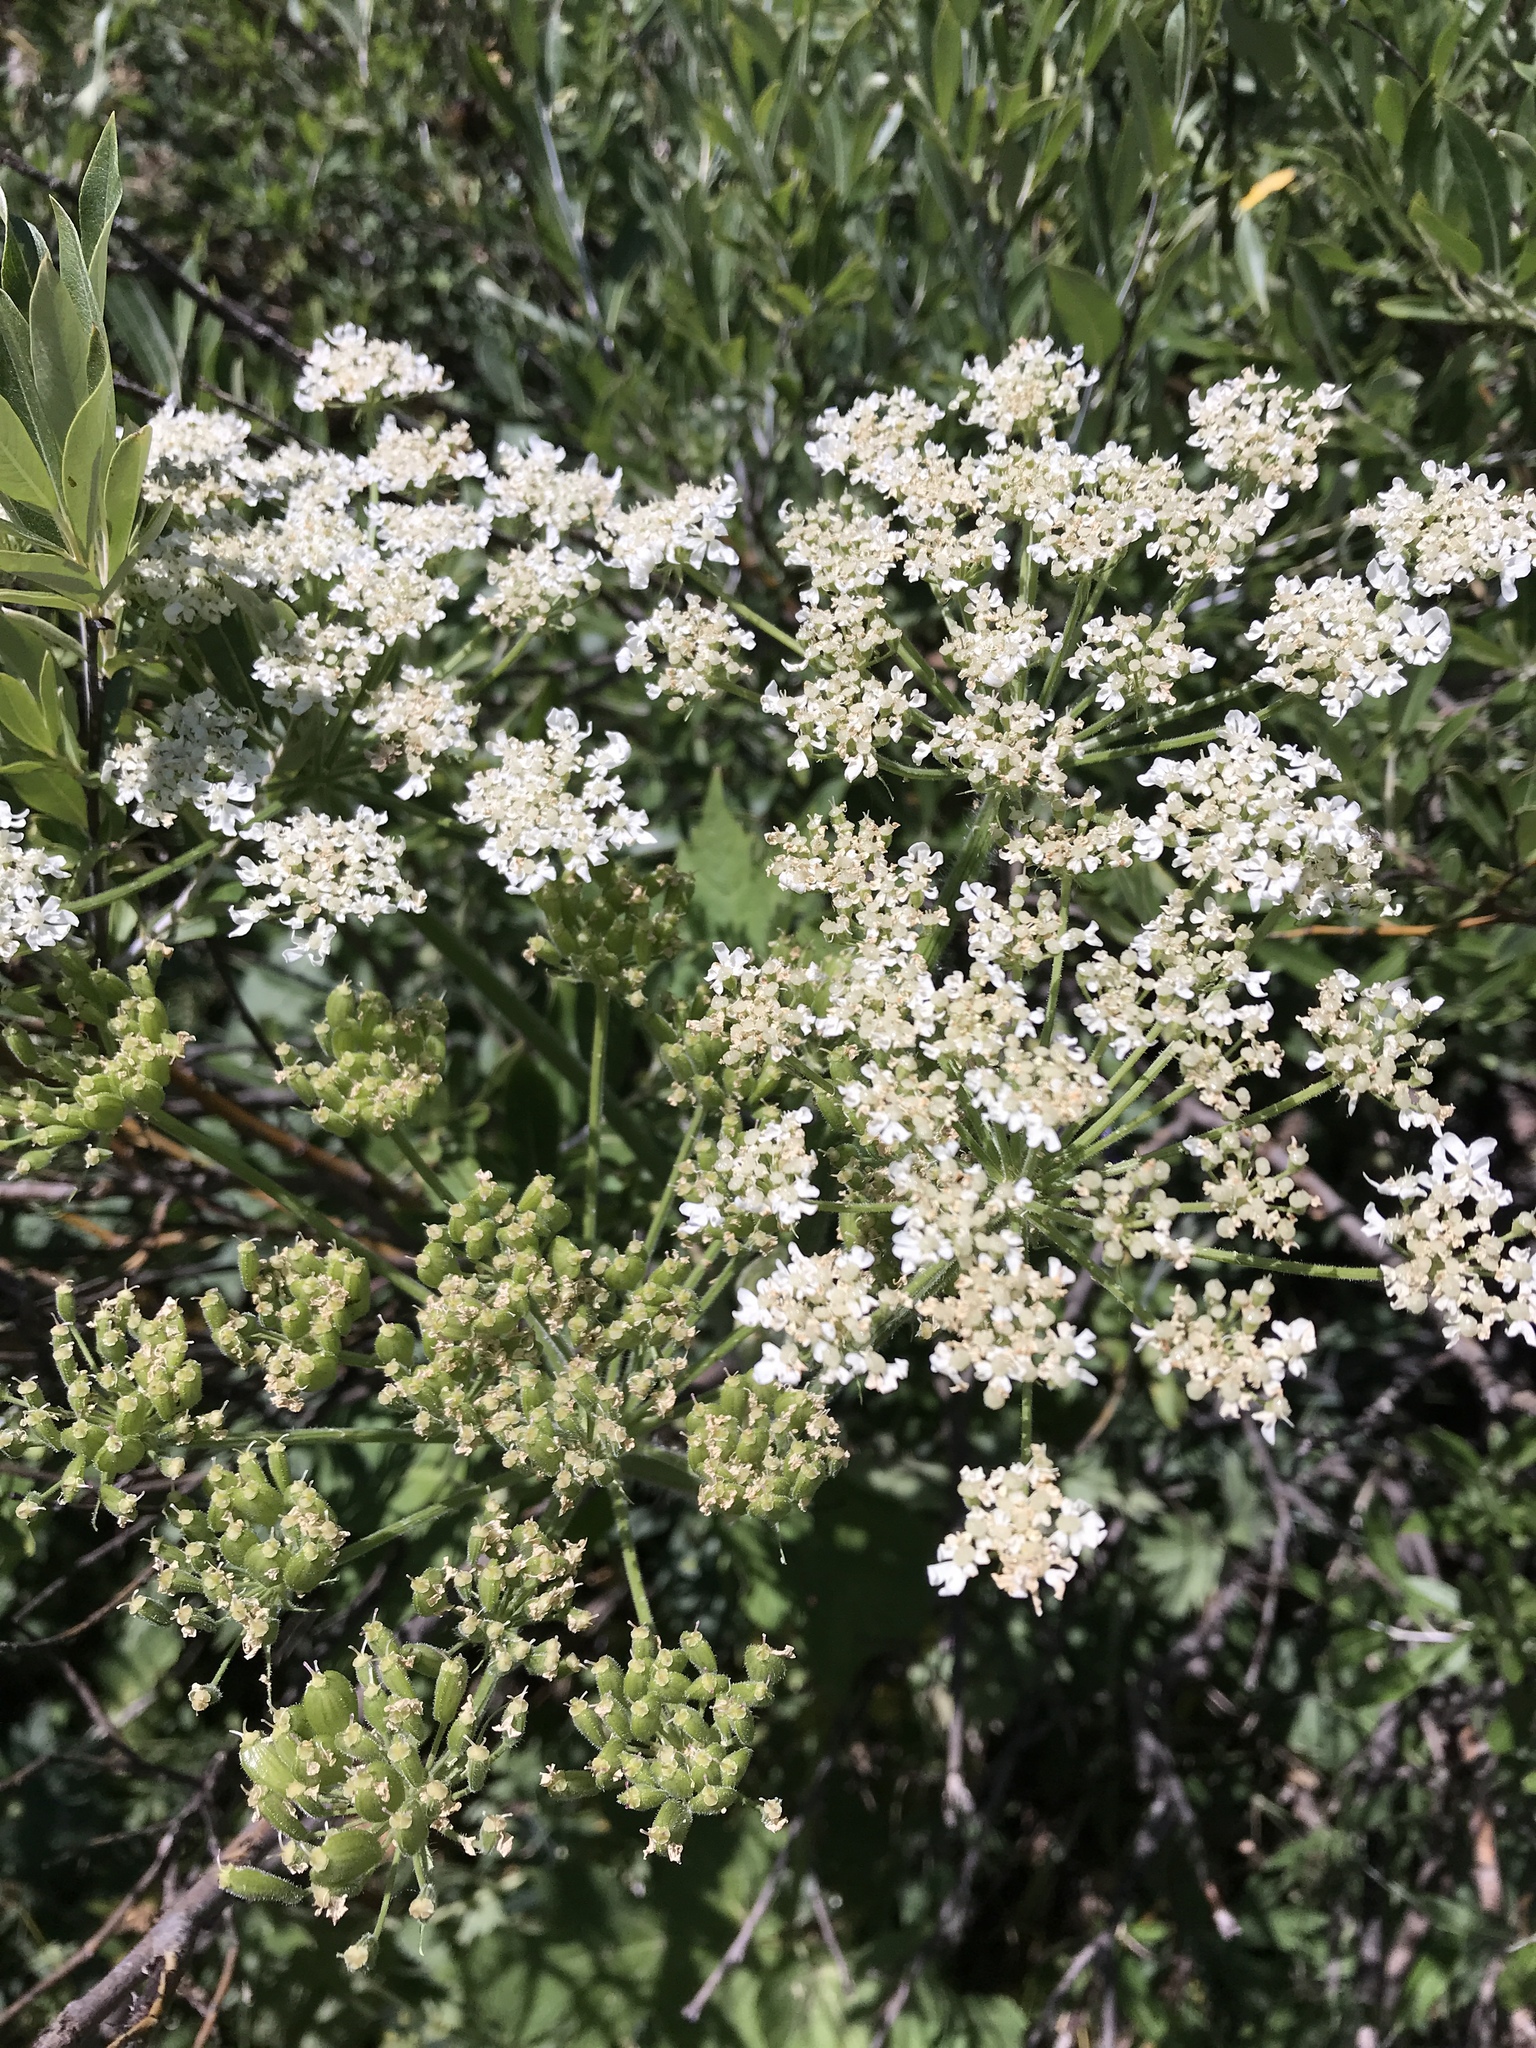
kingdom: Plantae
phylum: Tracheophyta
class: Magnoliopsida
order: Apiales
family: Apiaceae
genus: Heracleum
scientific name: Heracleum maximum
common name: American cow parsnip
